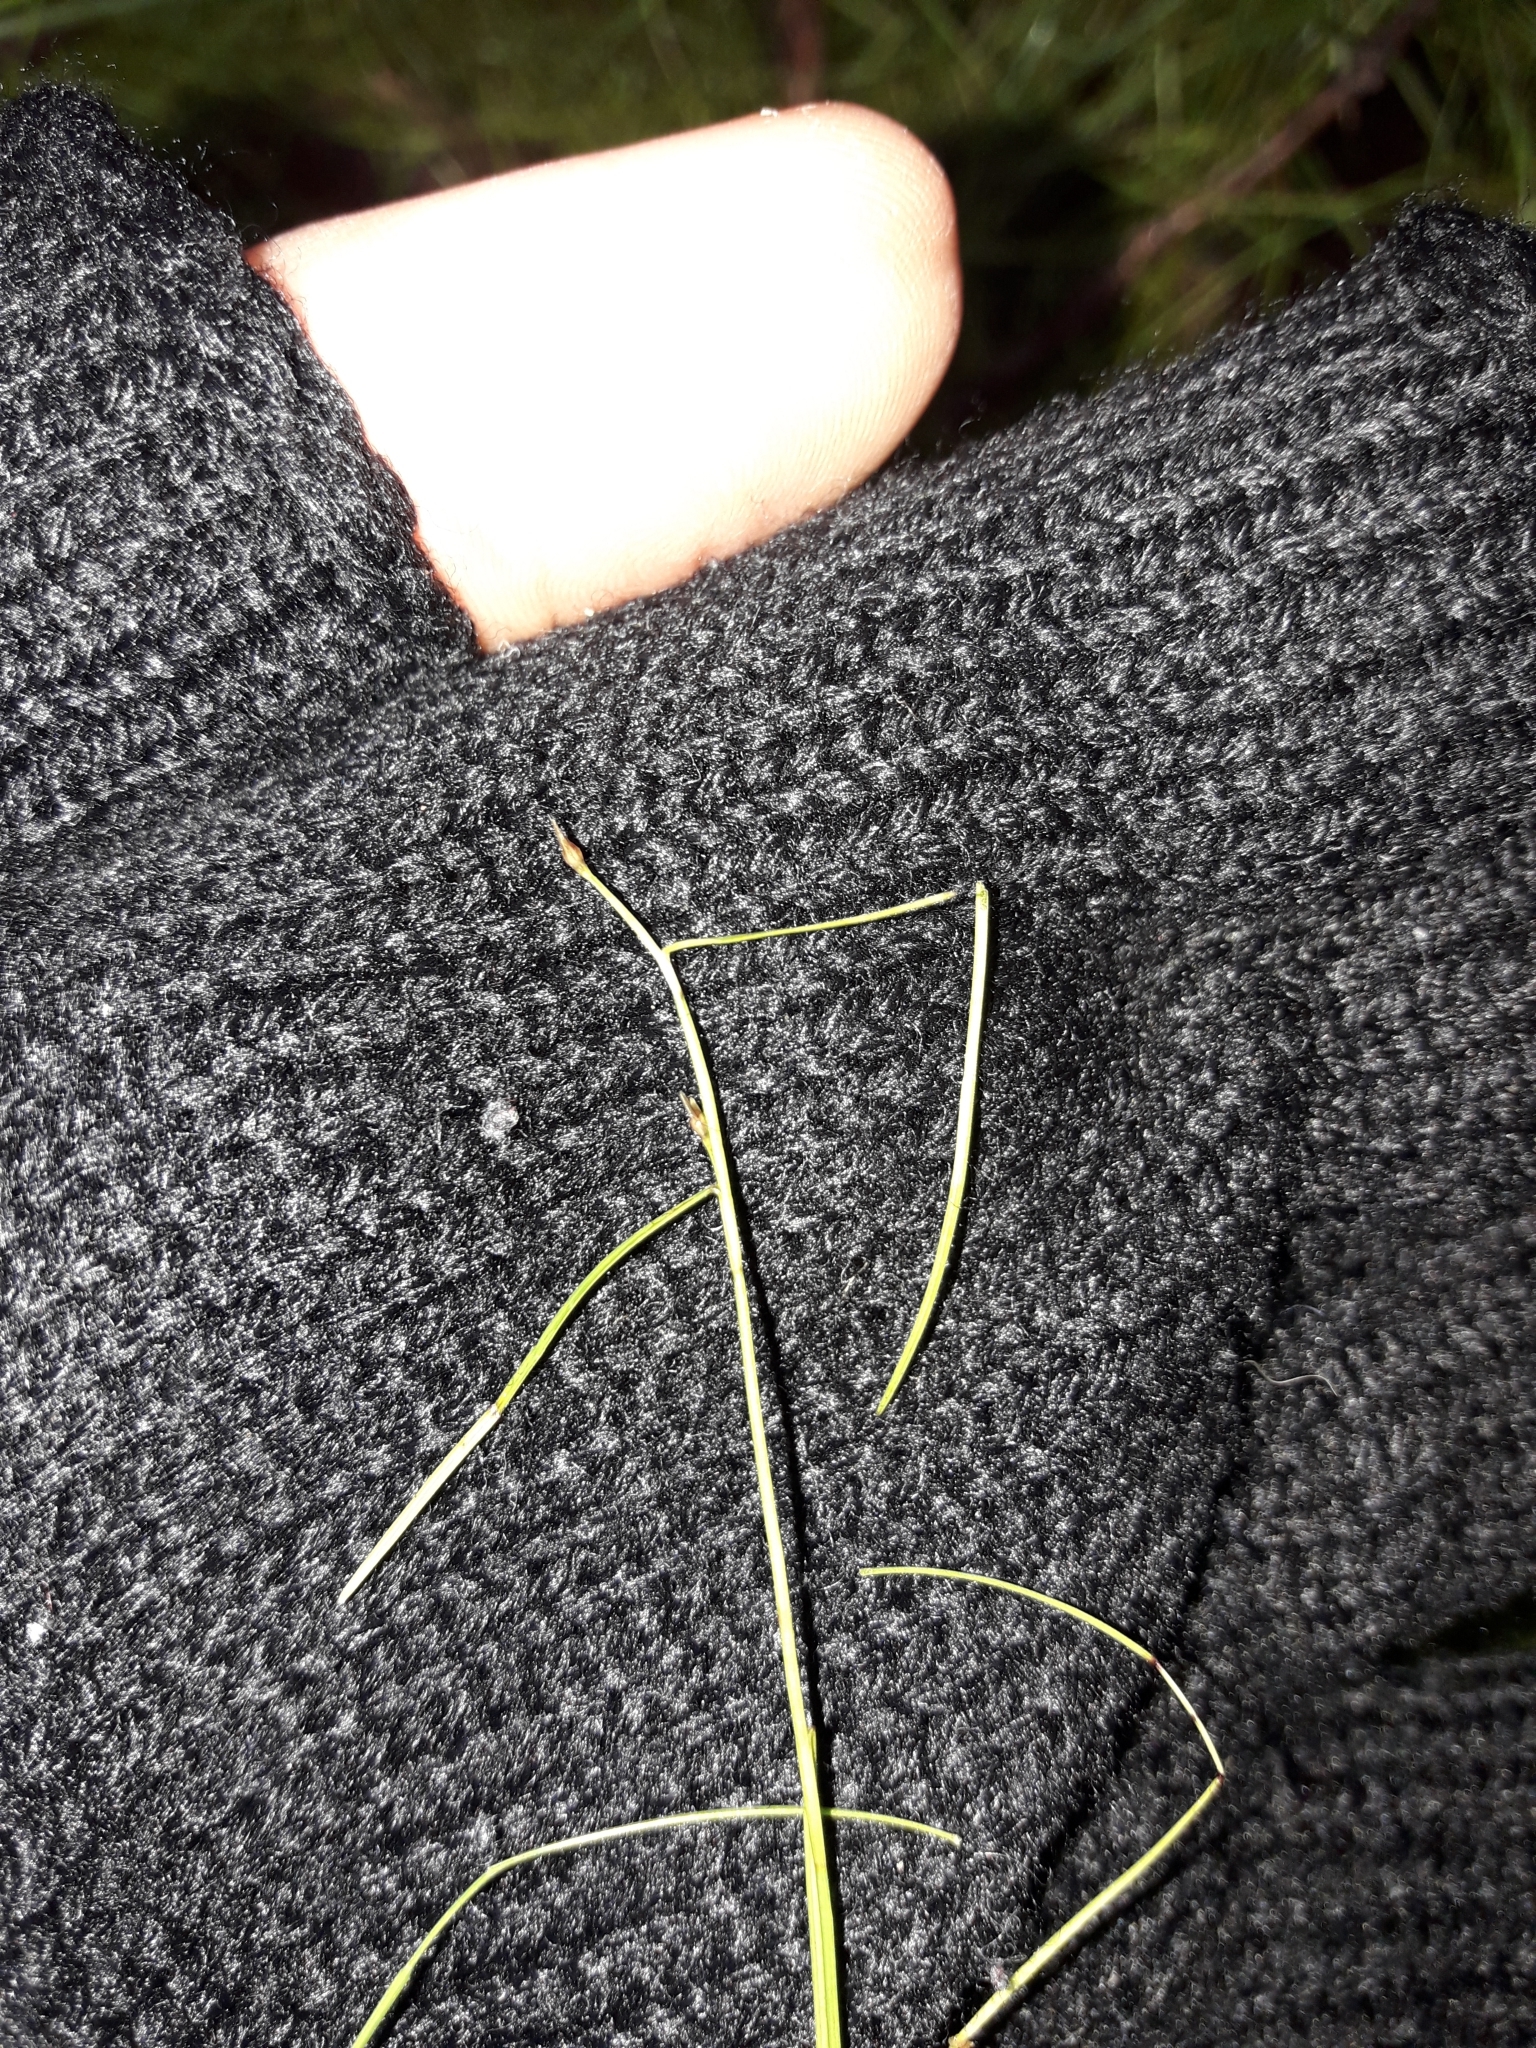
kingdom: Plantae
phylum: Tracheophyta
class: Liliopsida
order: Poales
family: Cyperaceae
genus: Schoenus
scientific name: Schoenus maschalinus
